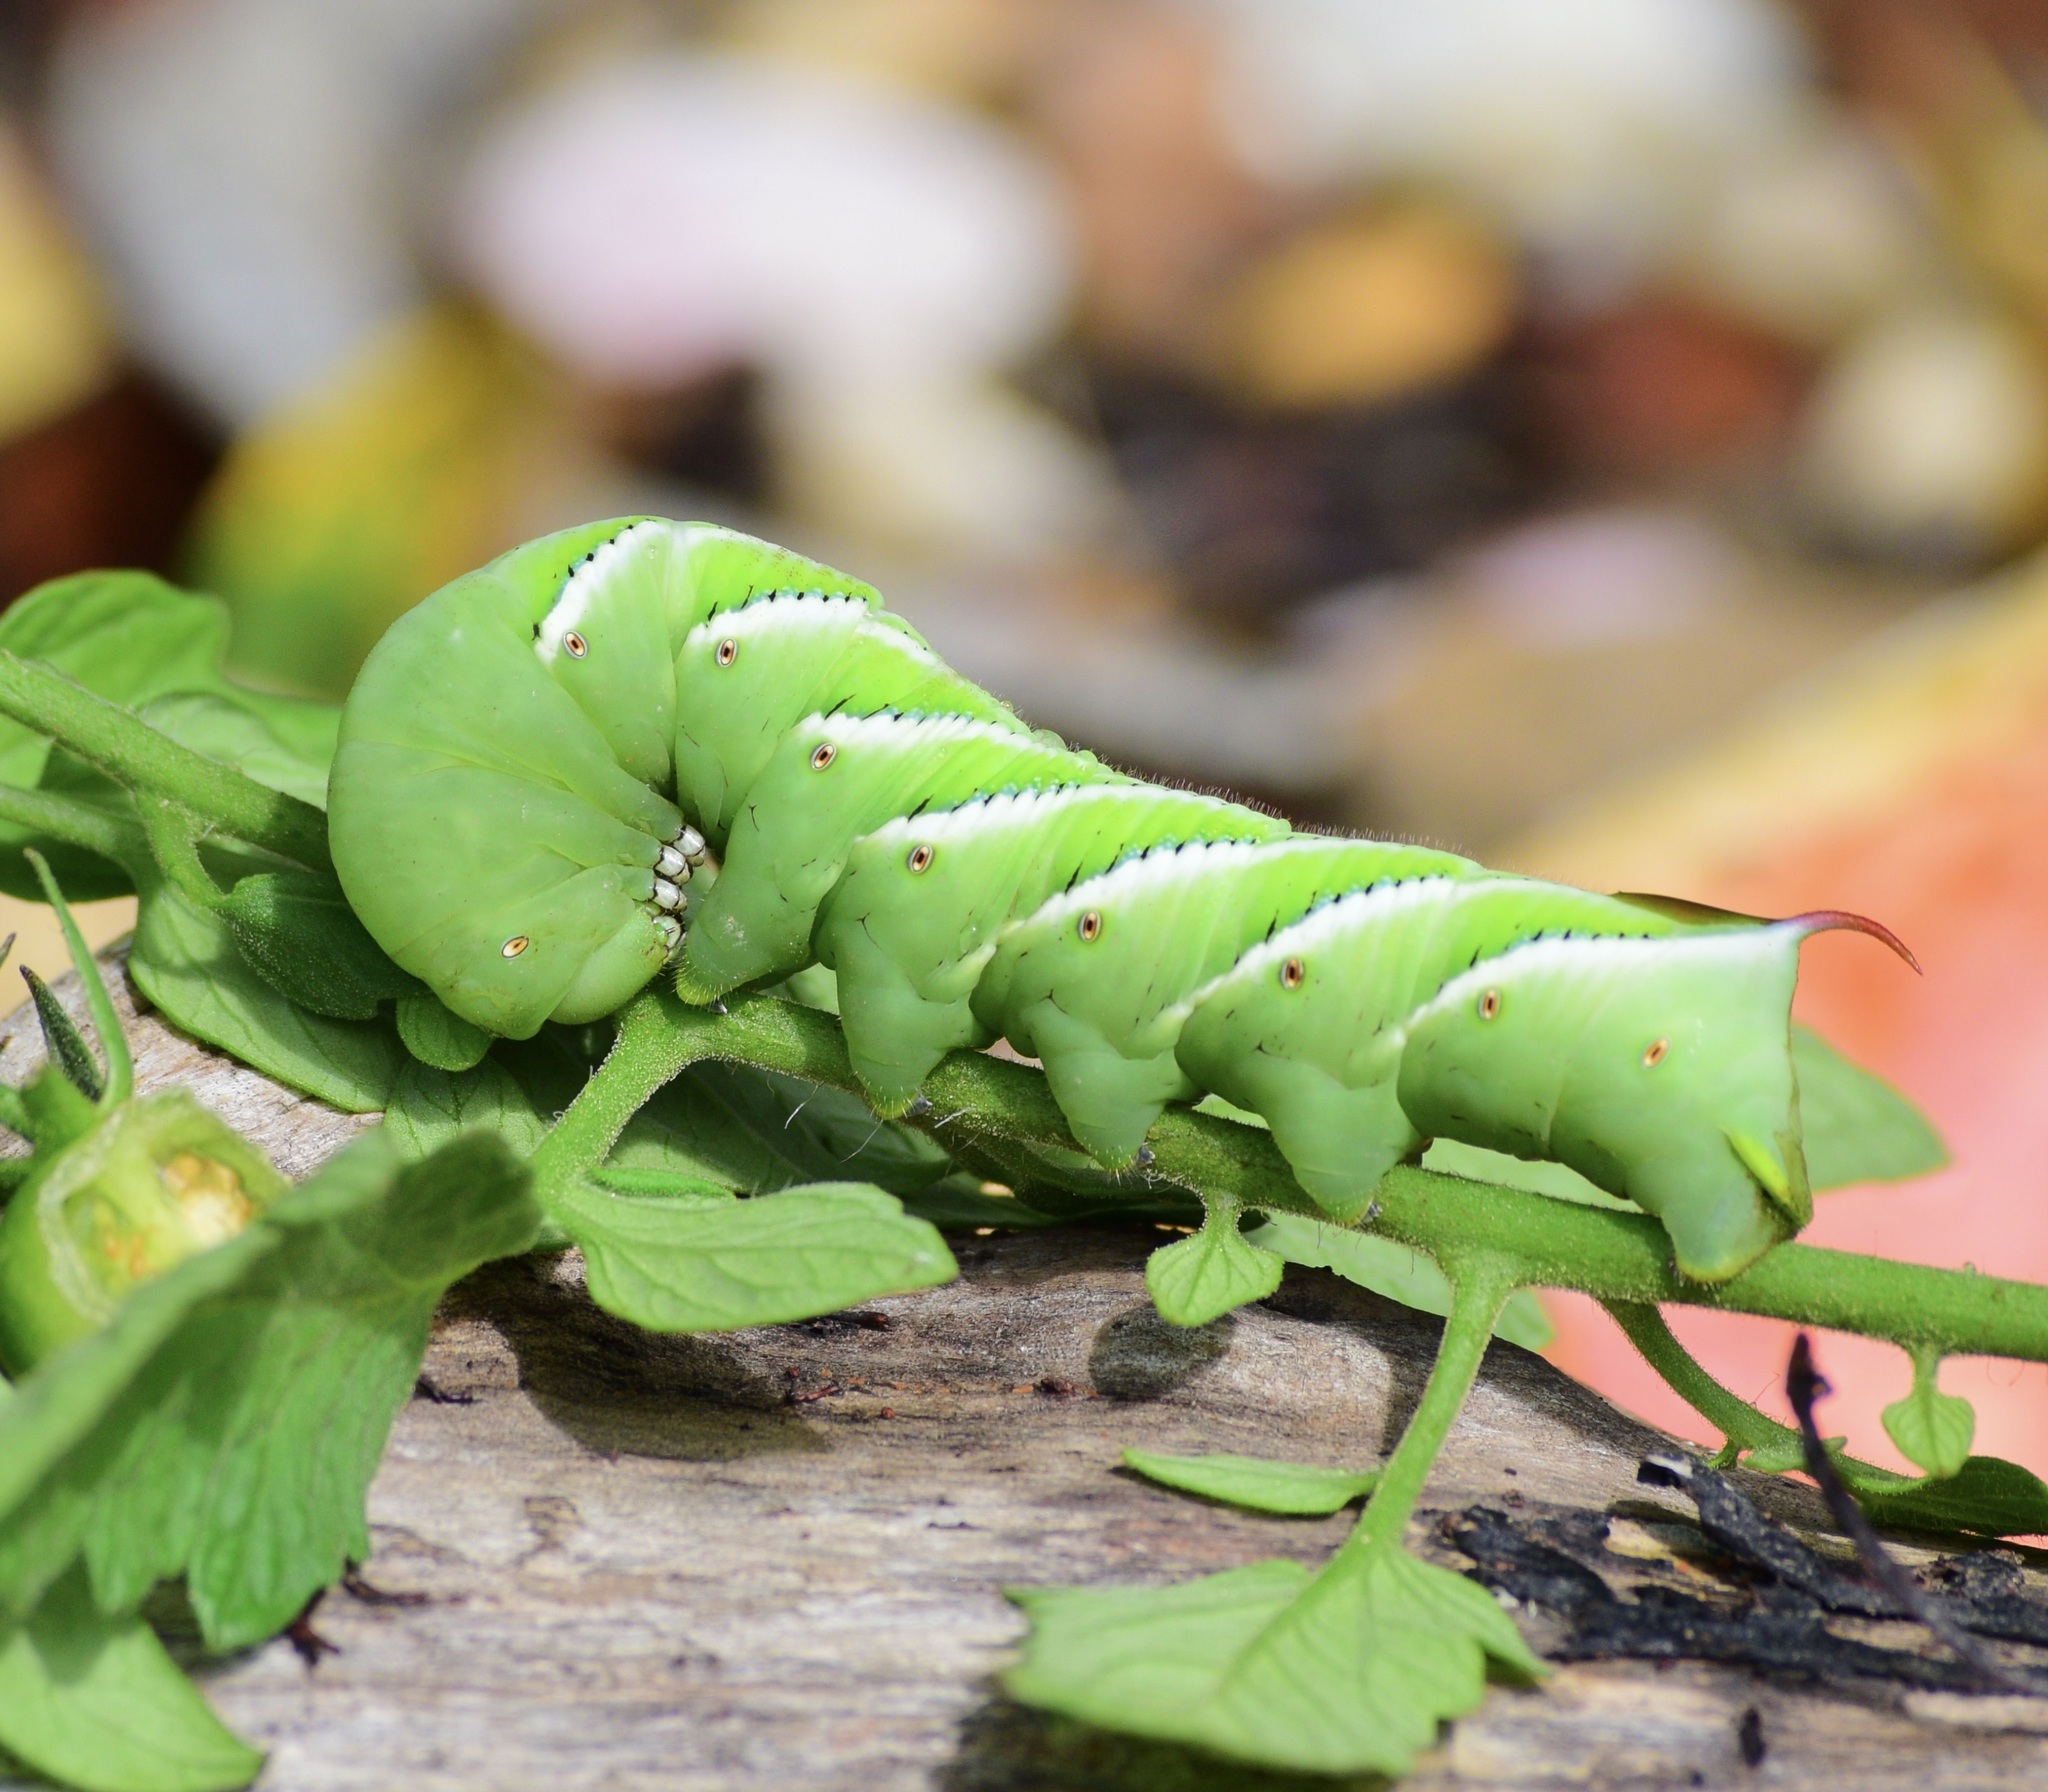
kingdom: Animalia
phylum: Arthropoda
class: Insecta
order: Lepidoptera
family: Sphingidae
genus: Manduca
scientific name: Manduca sexta
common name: Carolina sphinx
